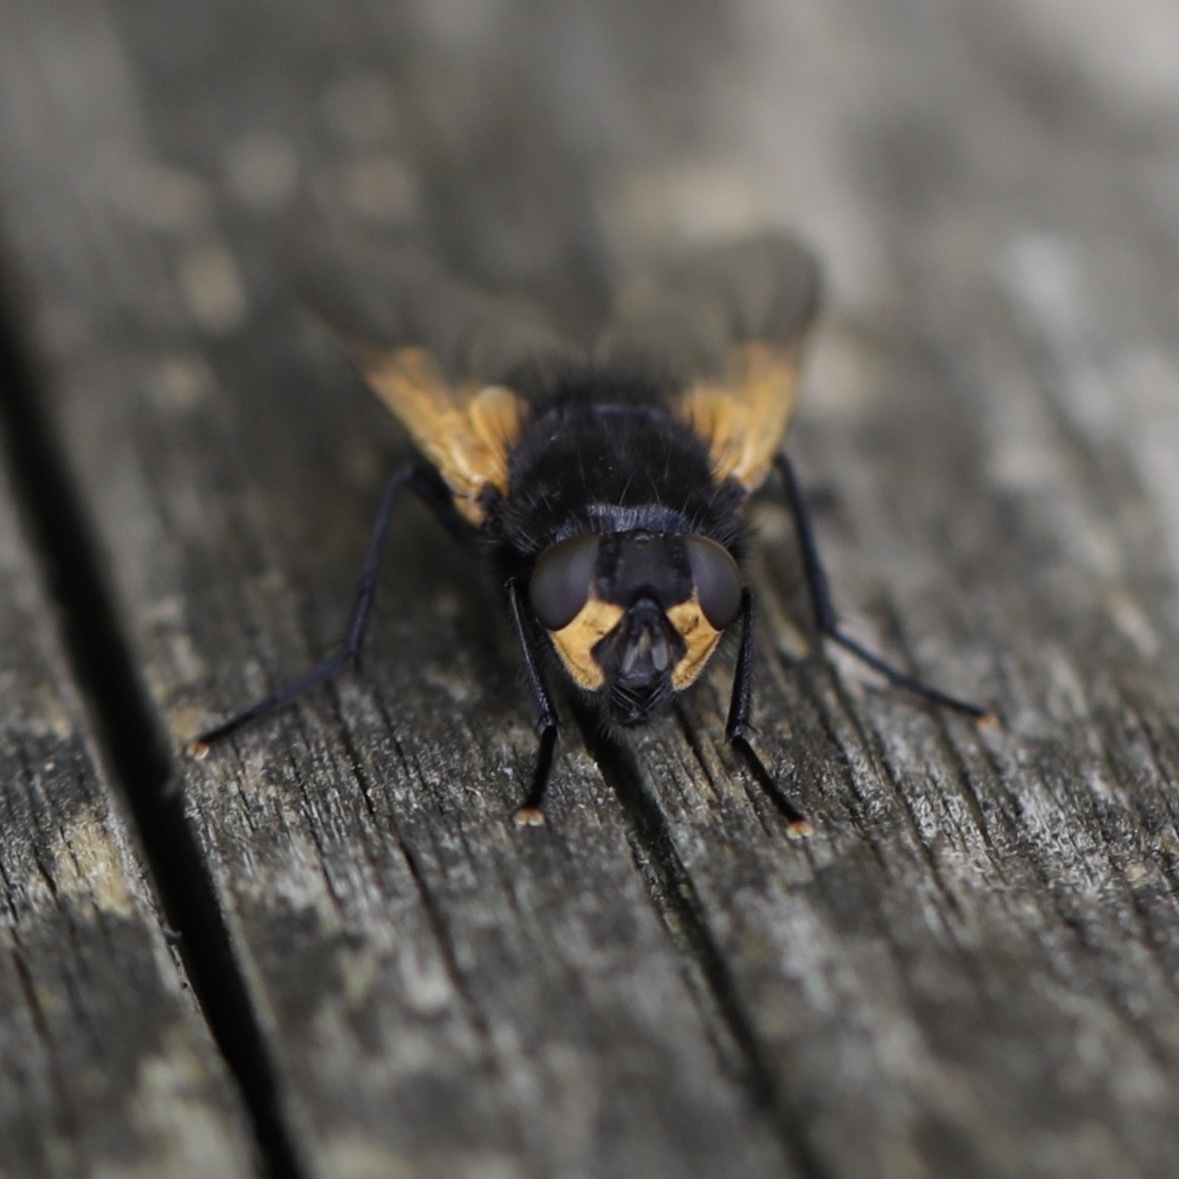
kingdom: Animalia
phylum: Arthropoda
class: Insecta
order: Diptera
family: Muscidae
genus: Mesembrina
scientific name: Mesembrina meridiana
